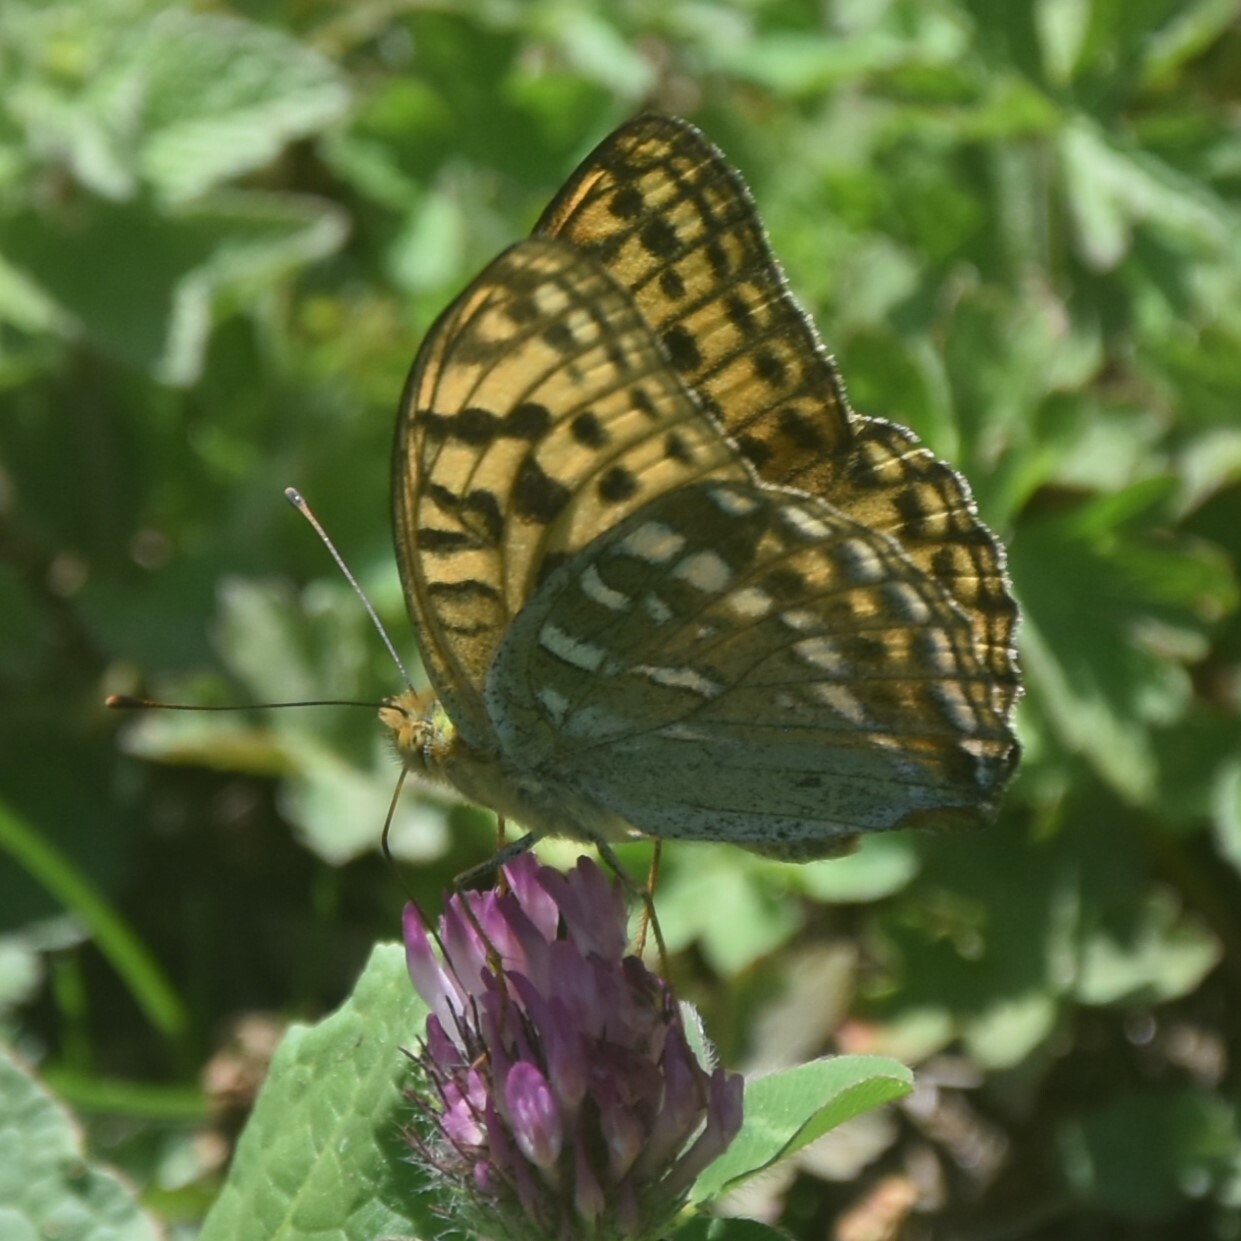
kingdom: Animalia
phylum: Arthropoda
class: Insecta
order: Lepidoptera
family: Nymphalidae
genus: Fabriciana
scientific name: Fabriciana kamala
